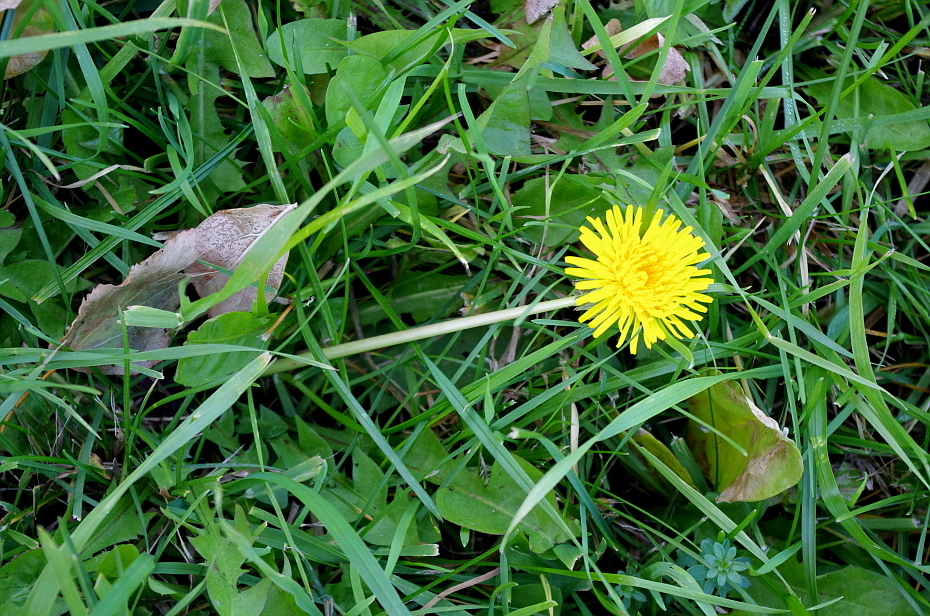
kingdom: Plantae
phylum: Tracheophyta
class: Magnoliopsida
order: Asterales
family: Asteraceae
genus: Taraxacum
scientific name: Taraxacum officinale
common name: Common dandelion
